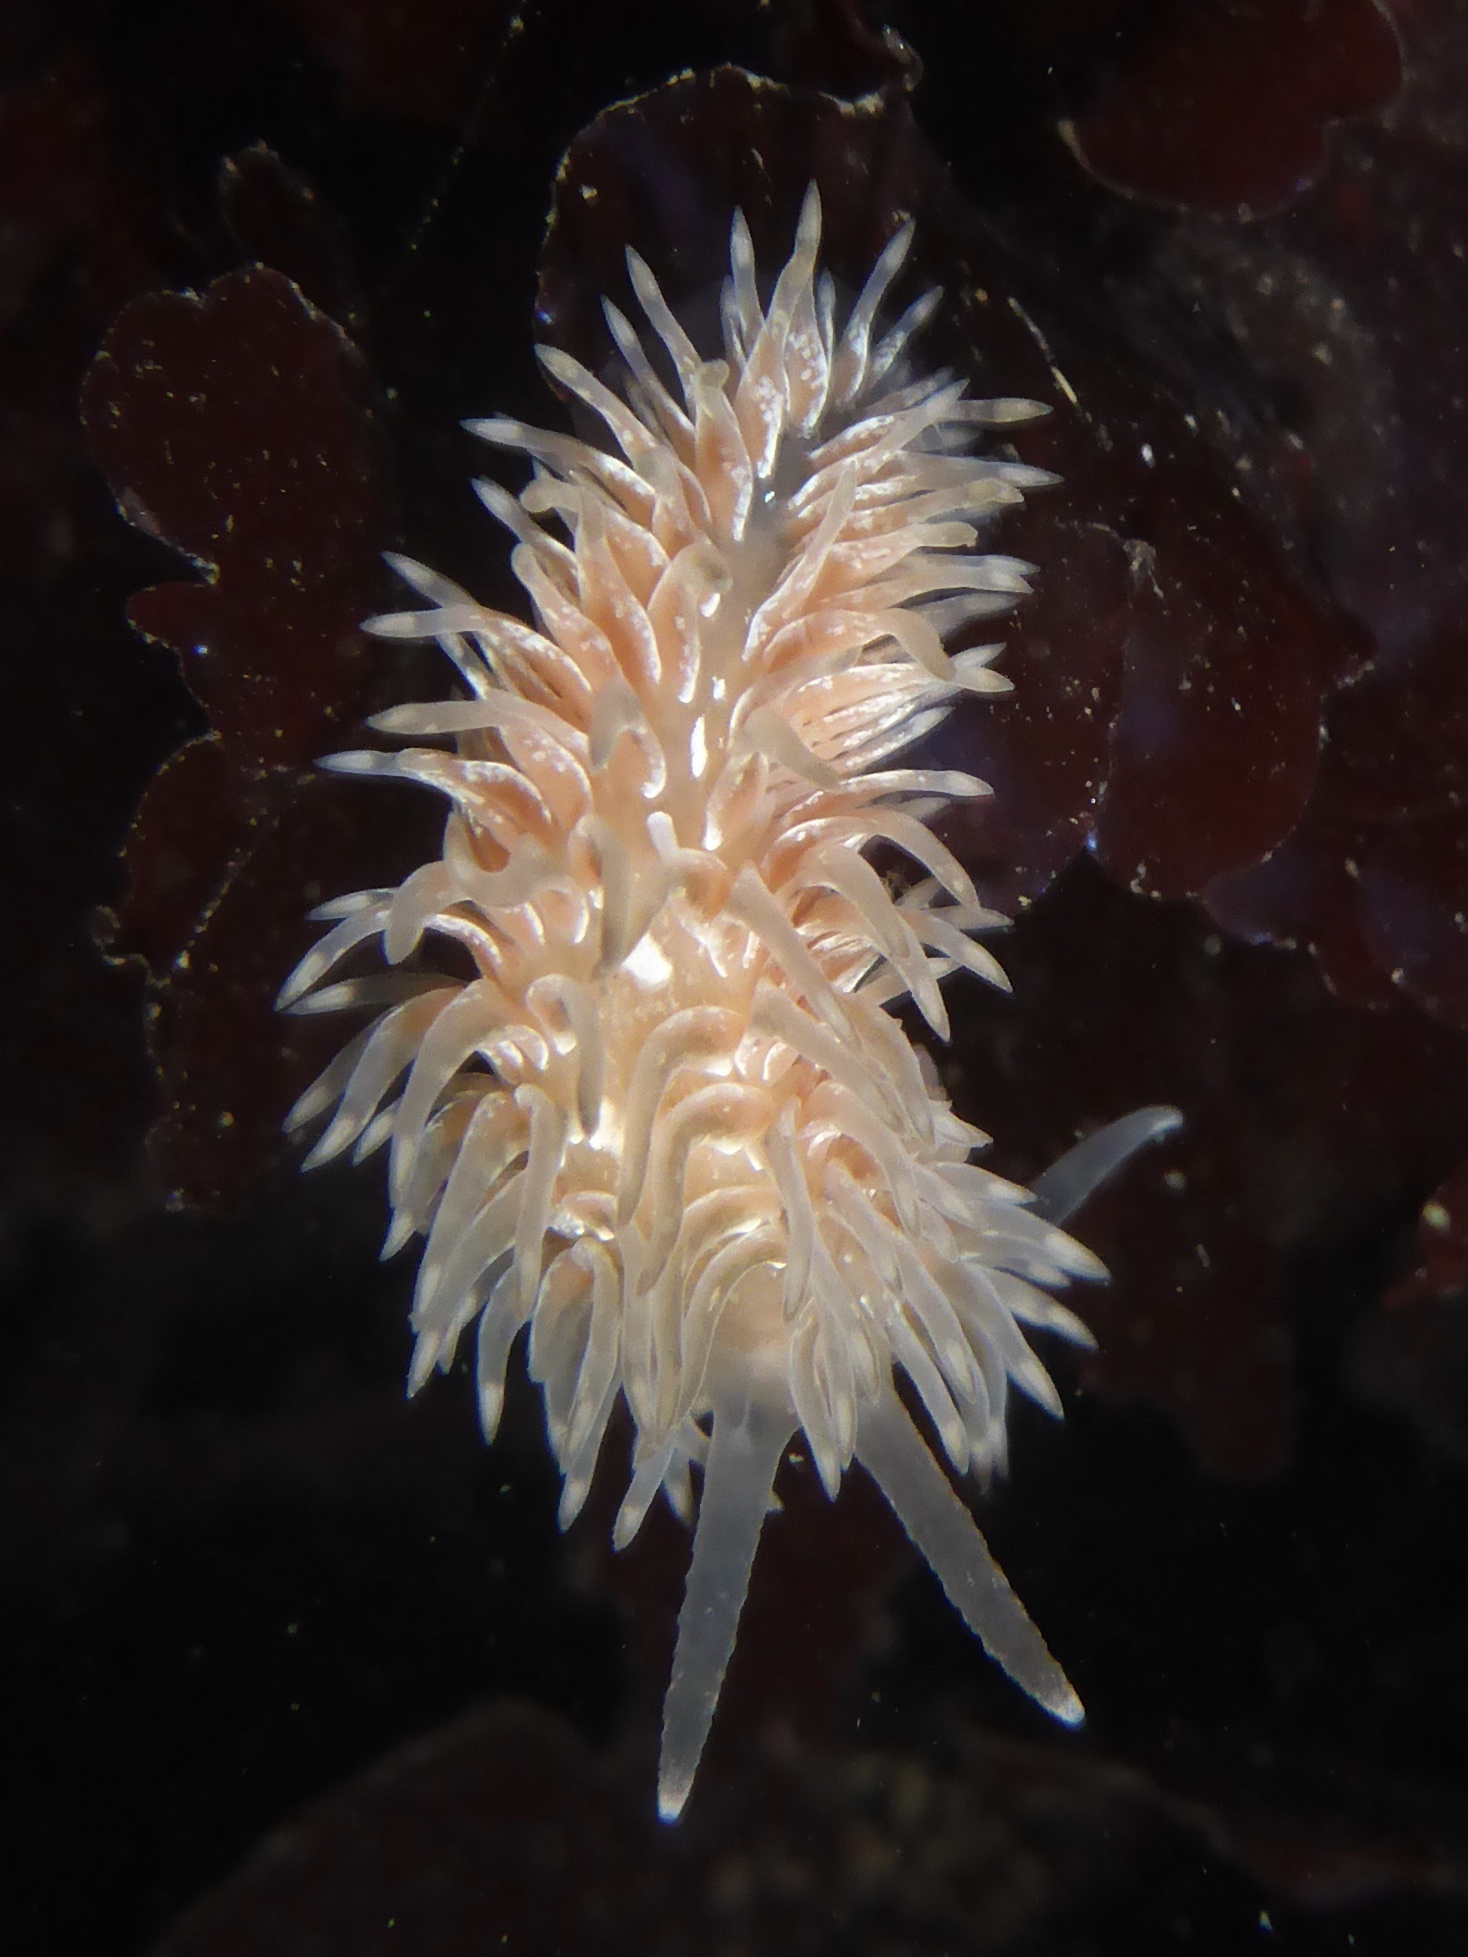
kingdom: Animalia
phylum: Mollusca
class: Gastropoda
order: Nudibranchia
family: Aeolidiidae
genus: Aeolidia
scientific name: Aeolidia loui
